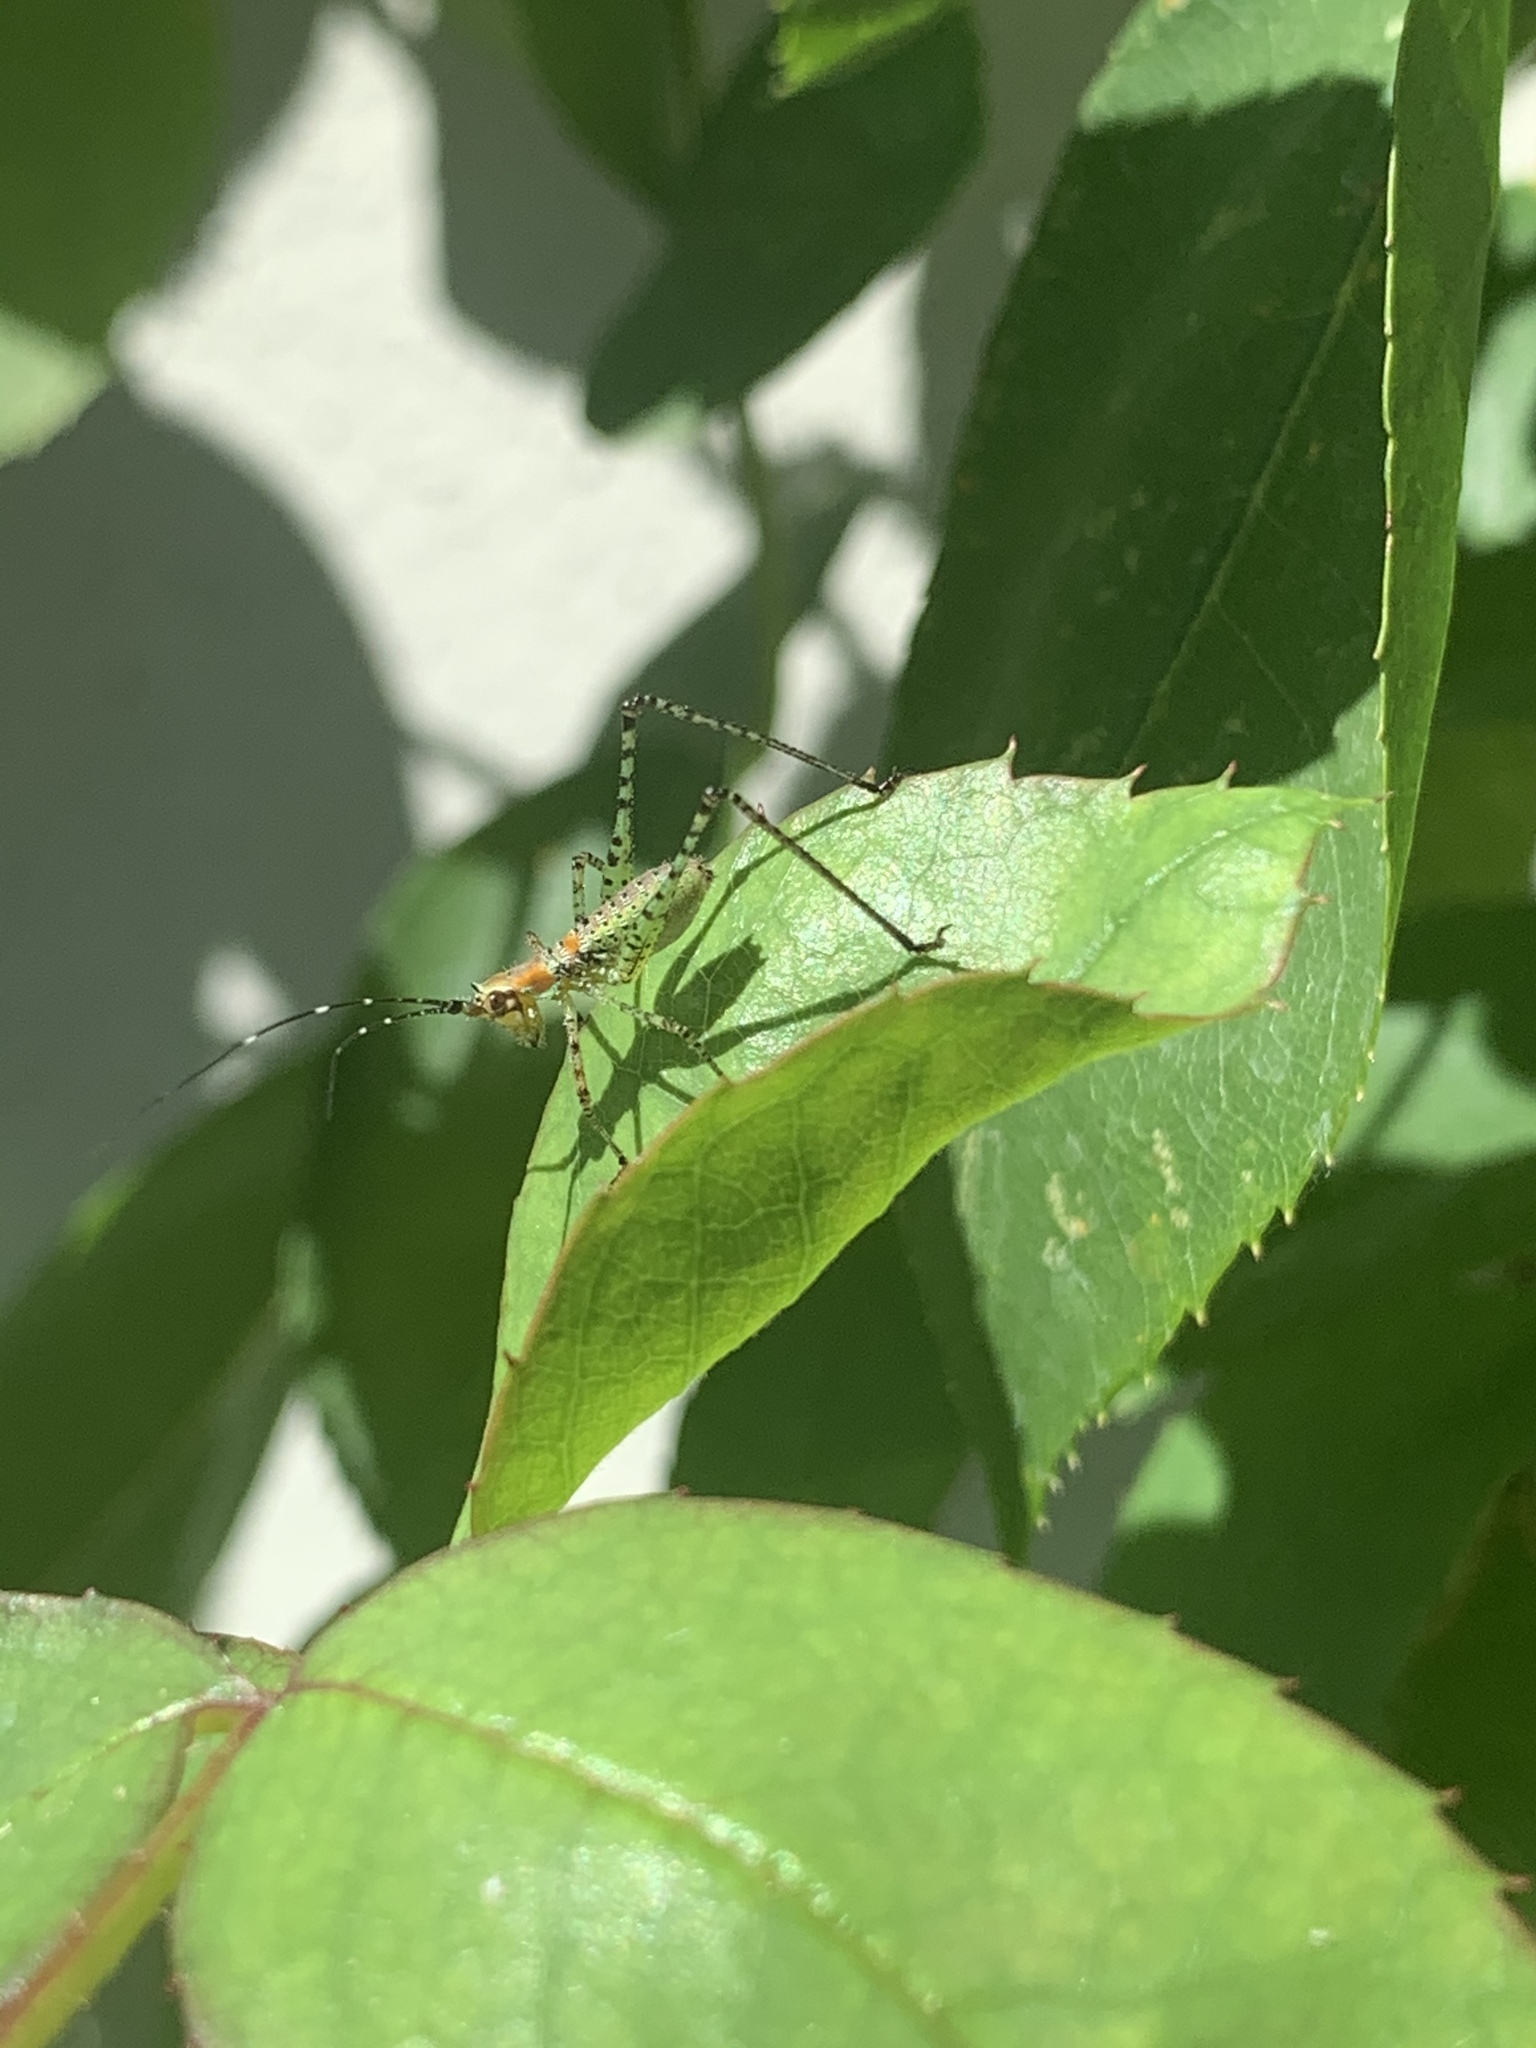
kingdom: Animalia
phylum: Arthropoda
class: Insecta
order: Orthoptera
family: Tettigoniidae
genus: Scudderia
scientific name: Scudderia
